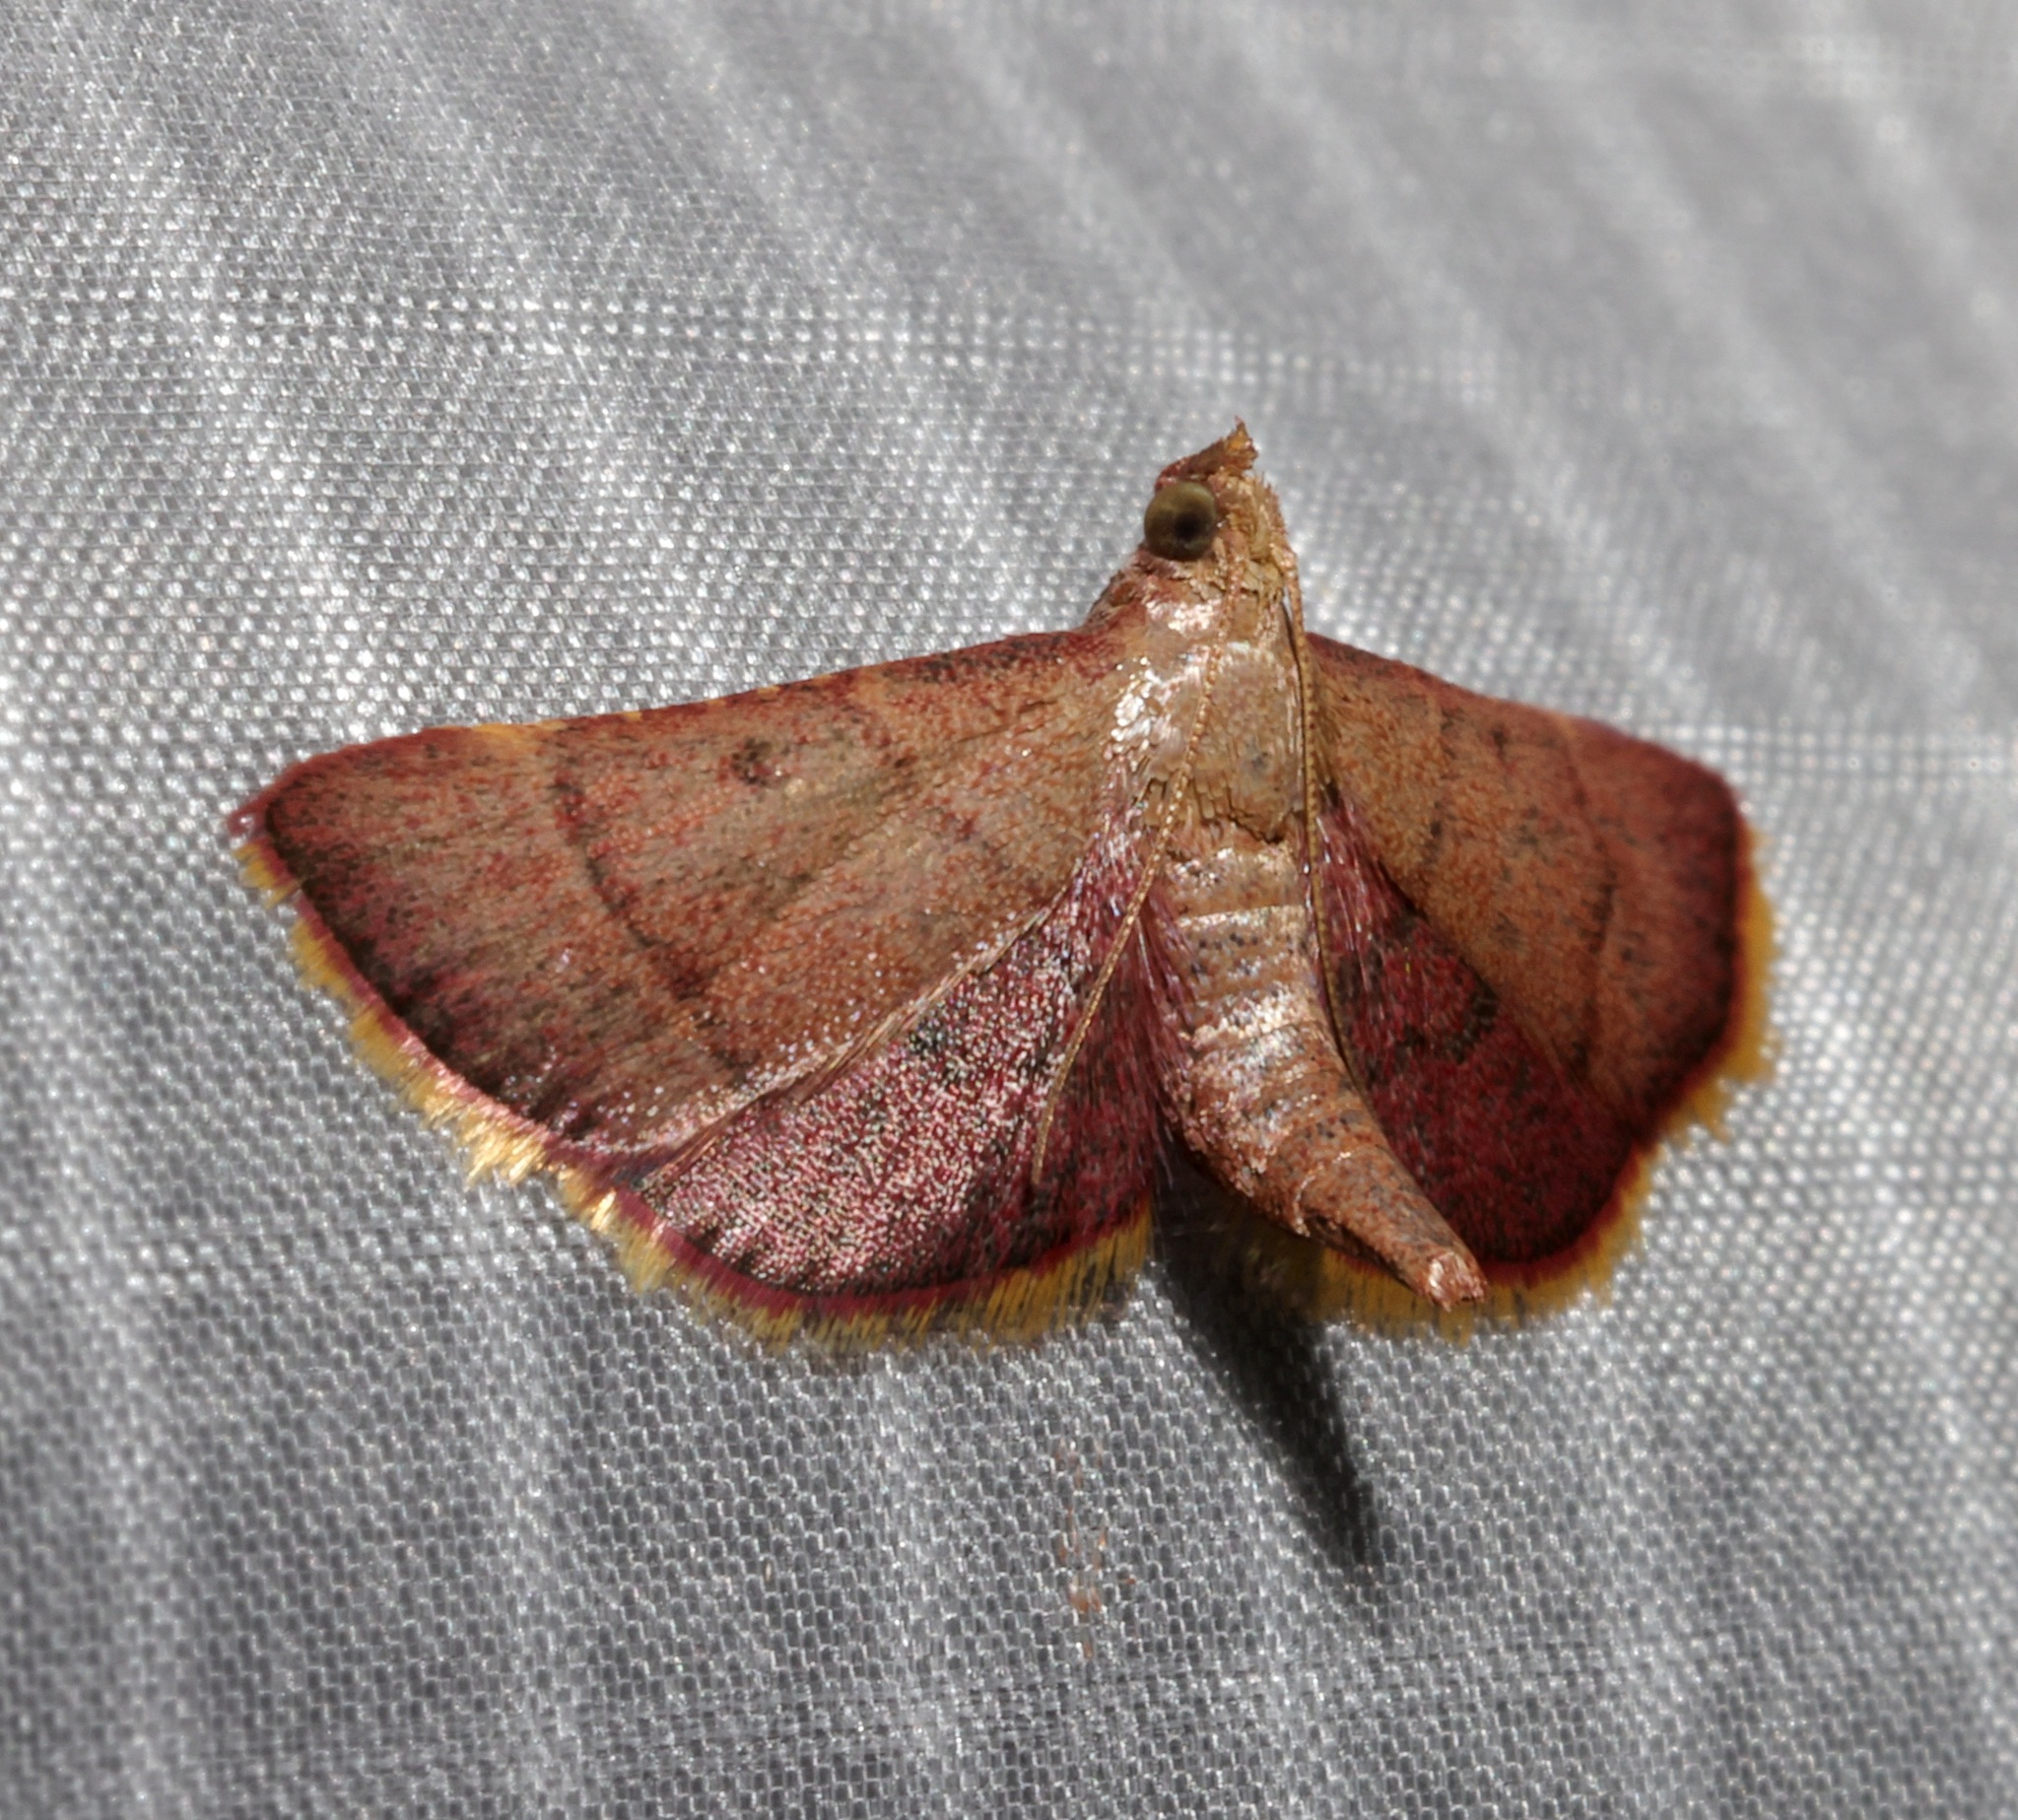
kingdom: Animalia
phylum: Arthropoda
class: Insecta
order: Lepidoptera
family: Pyralidae
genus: Hypsopygia
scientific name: Hypsopygia
